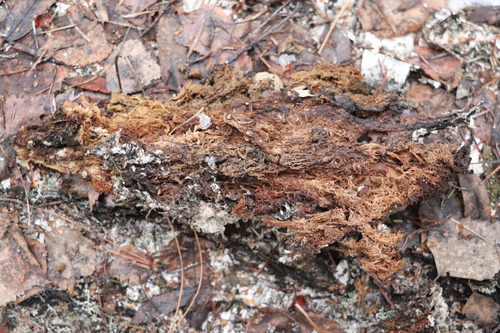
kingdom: Fungi
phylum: Basidiomycota
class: Agaricomycetes
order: Russulales
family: Hericiaceae
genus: Hericium
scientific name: Hericium coralloides
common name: Coral tooth
